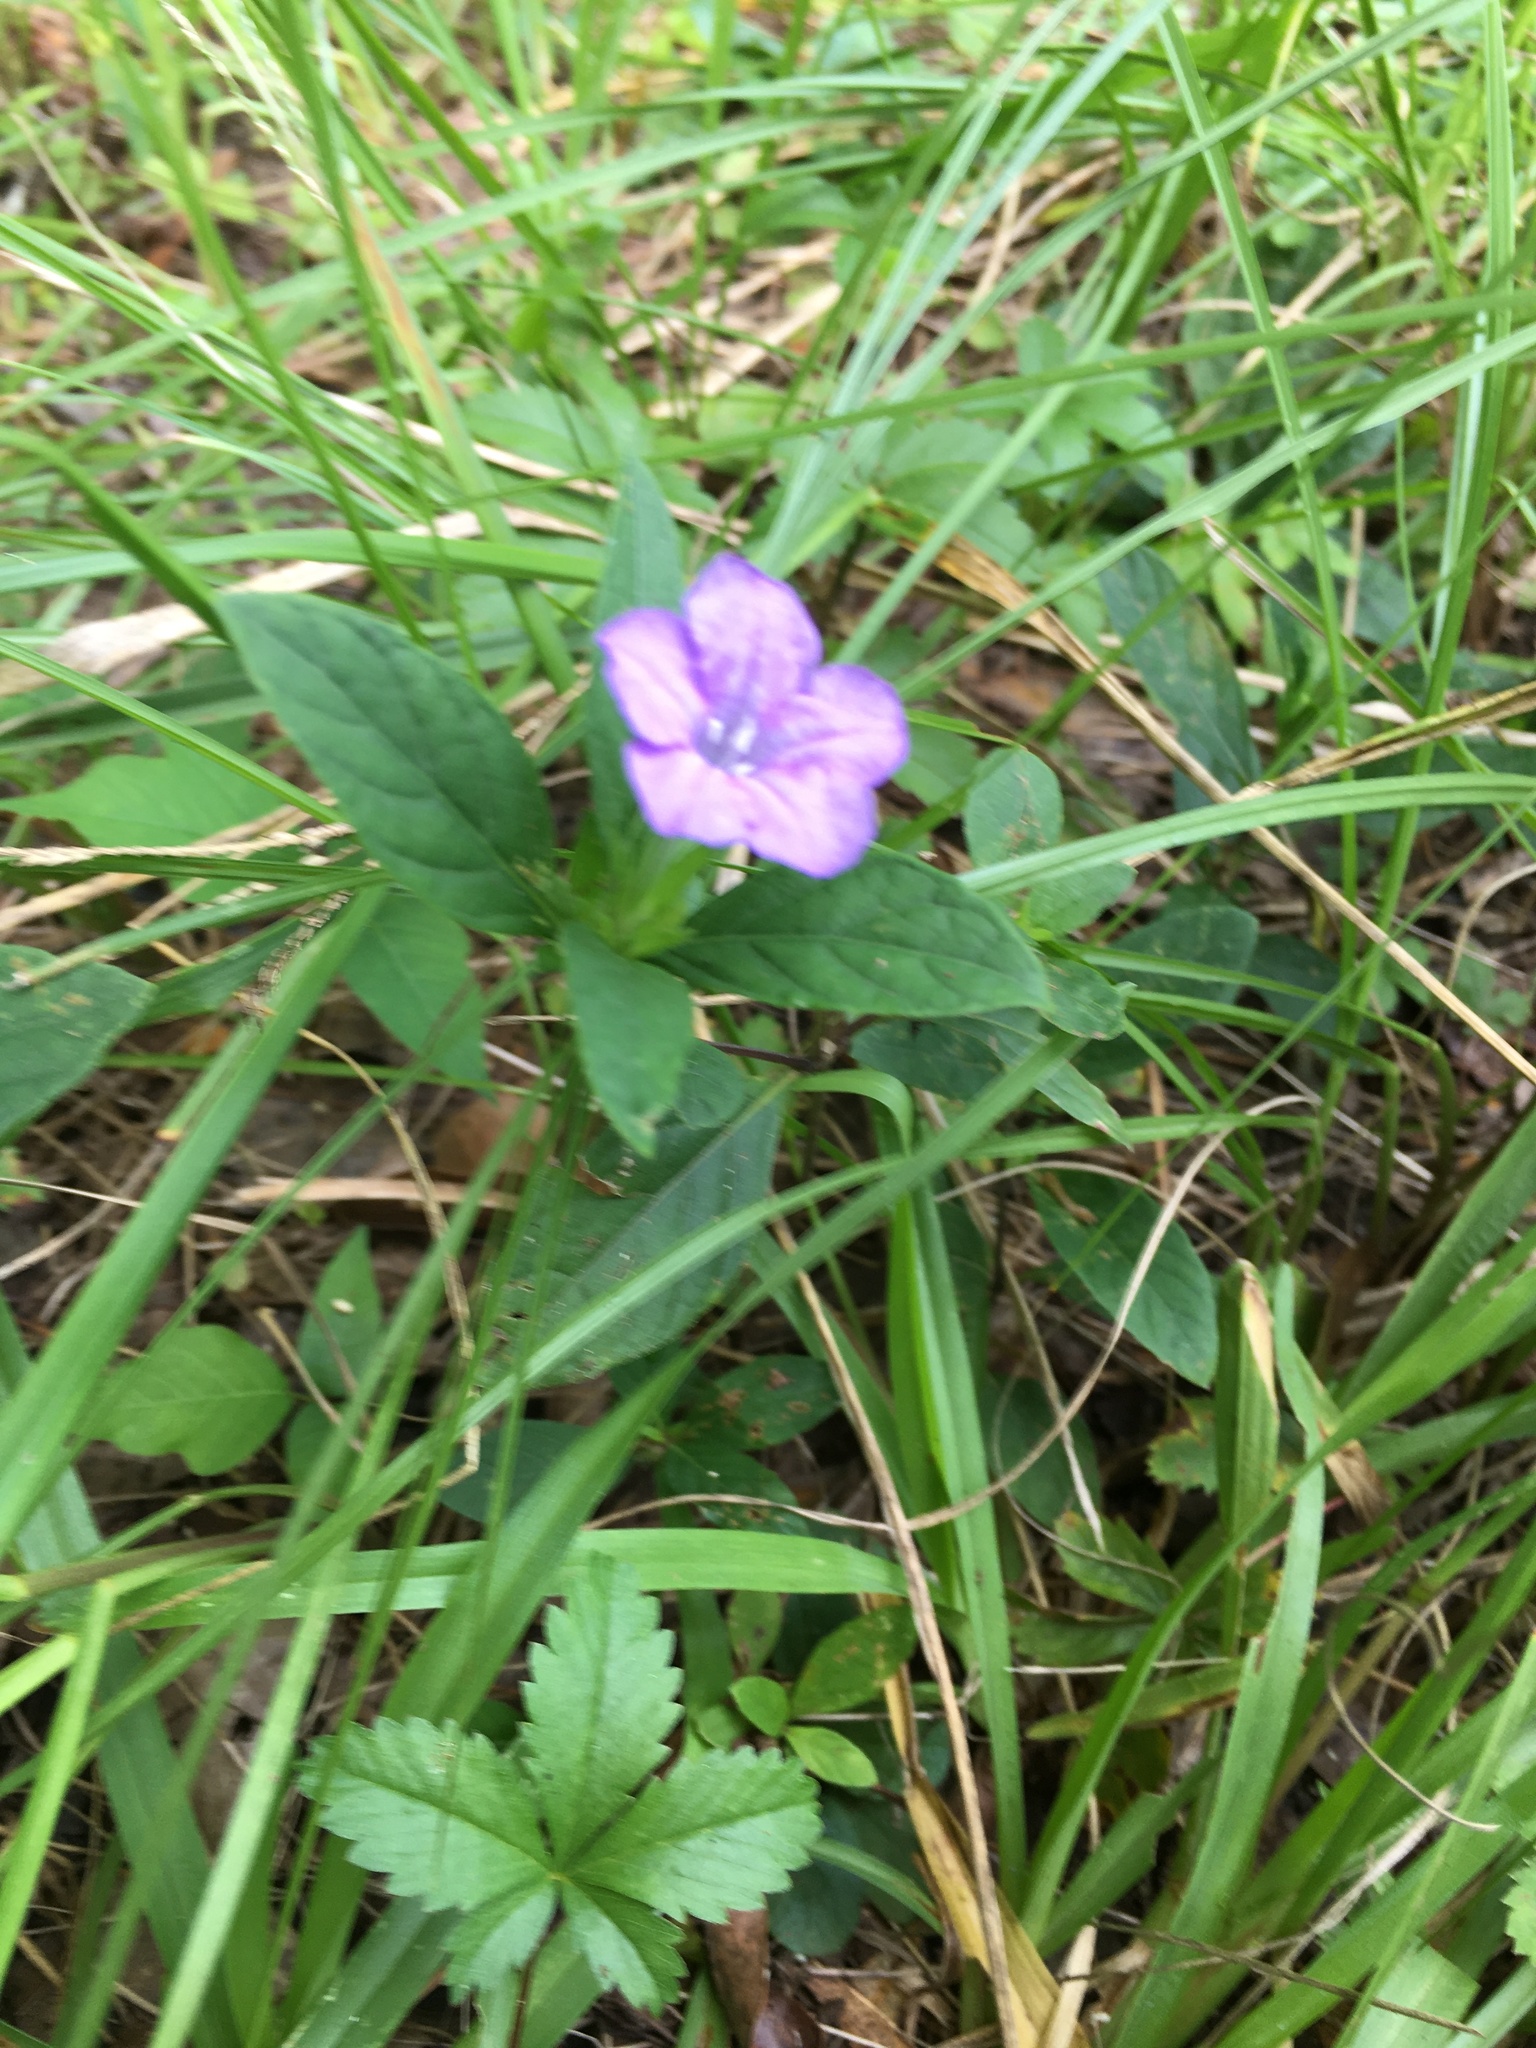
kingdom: Plantae
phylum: Tracheophyta
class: Magnoliopsida
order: Lamiales
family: Acanthaceae
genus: Ruellia
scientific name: Ruellia caroliniensis
